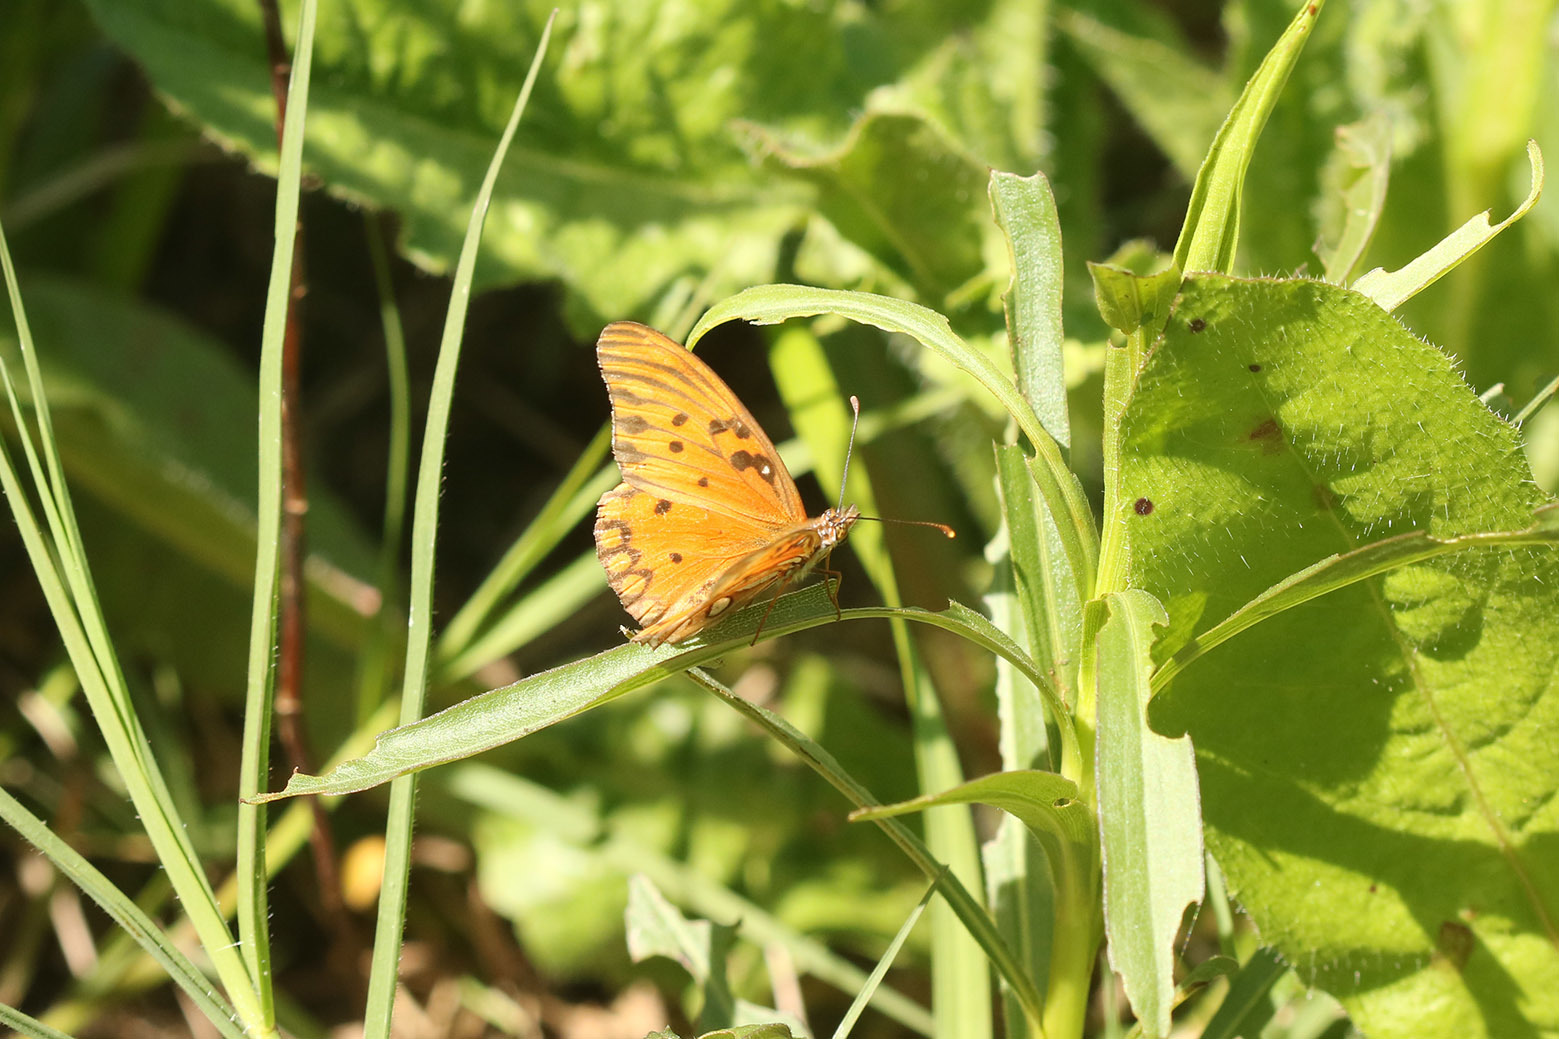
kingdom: Animalia
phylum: Arthropoda
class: Insecta
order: Lepidoptera
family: Nymphalidae
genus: Dione
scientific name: Dione vanillae
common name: Gulf fritillary
